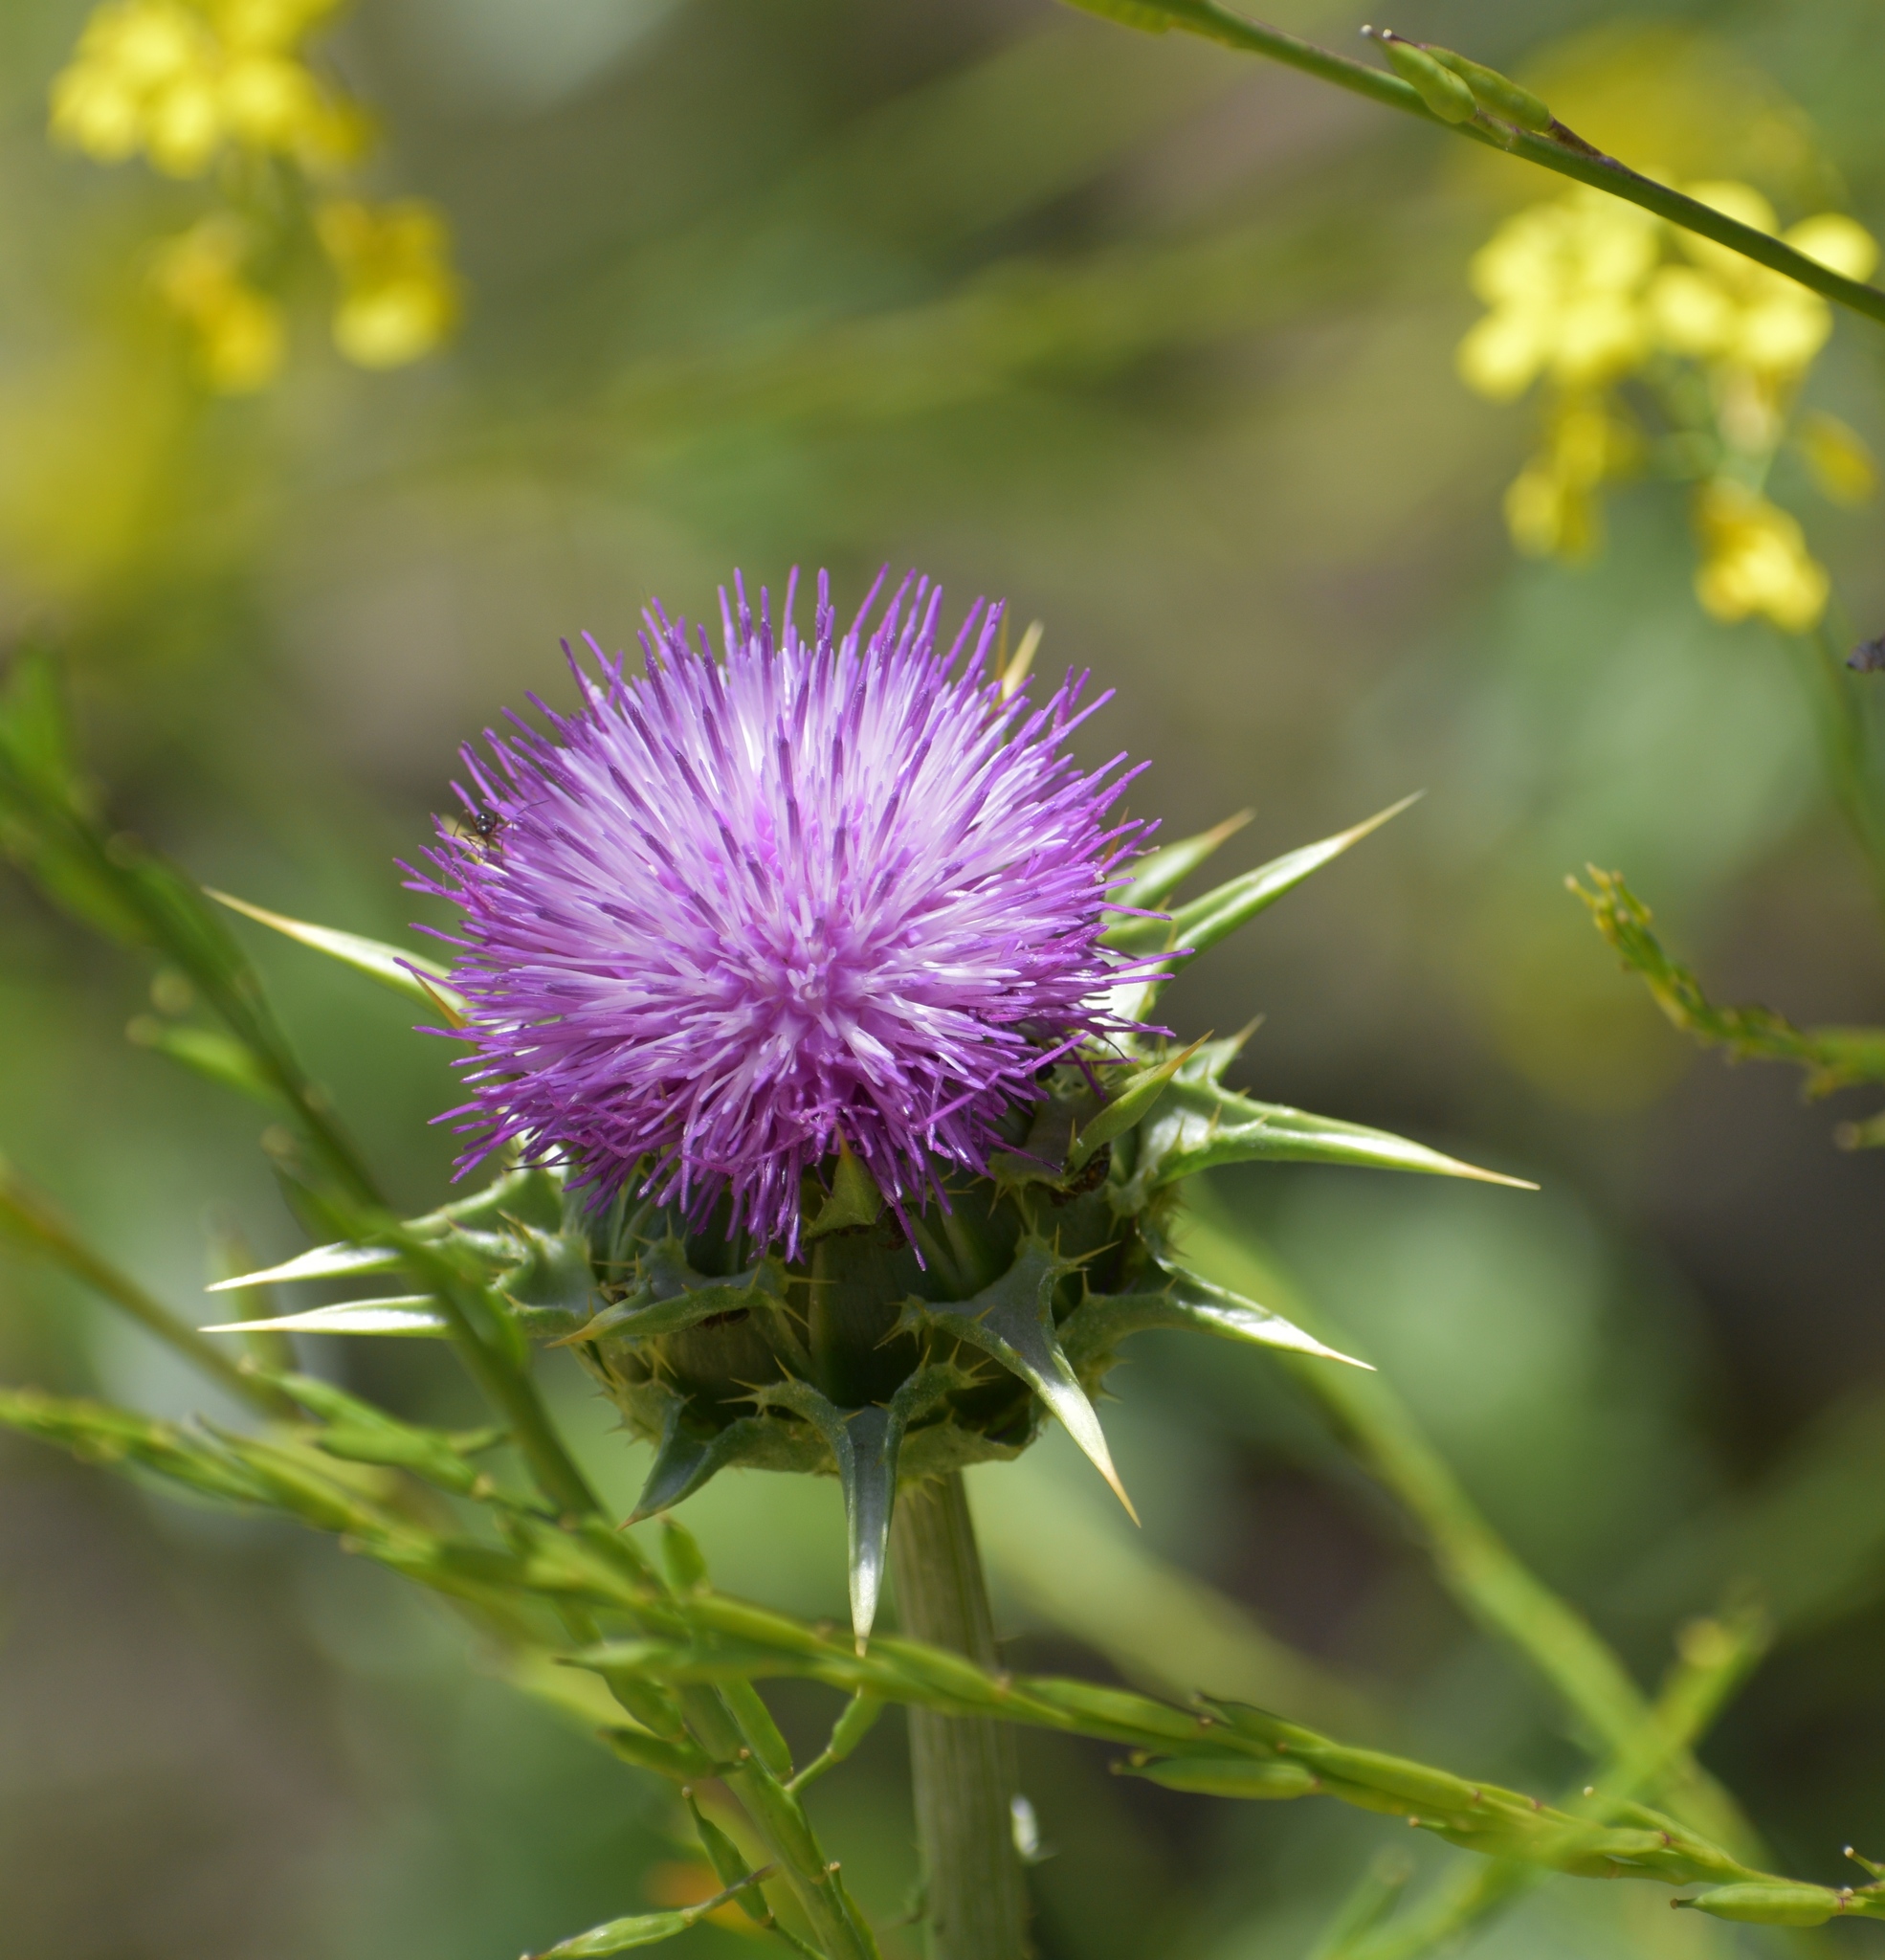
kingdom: Plantae
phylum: Tracheophyta
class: Magnoliopsida
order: Asterales
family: Asteraceae
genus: Silybum
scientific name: Silybum marianum
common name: Milk thistle
